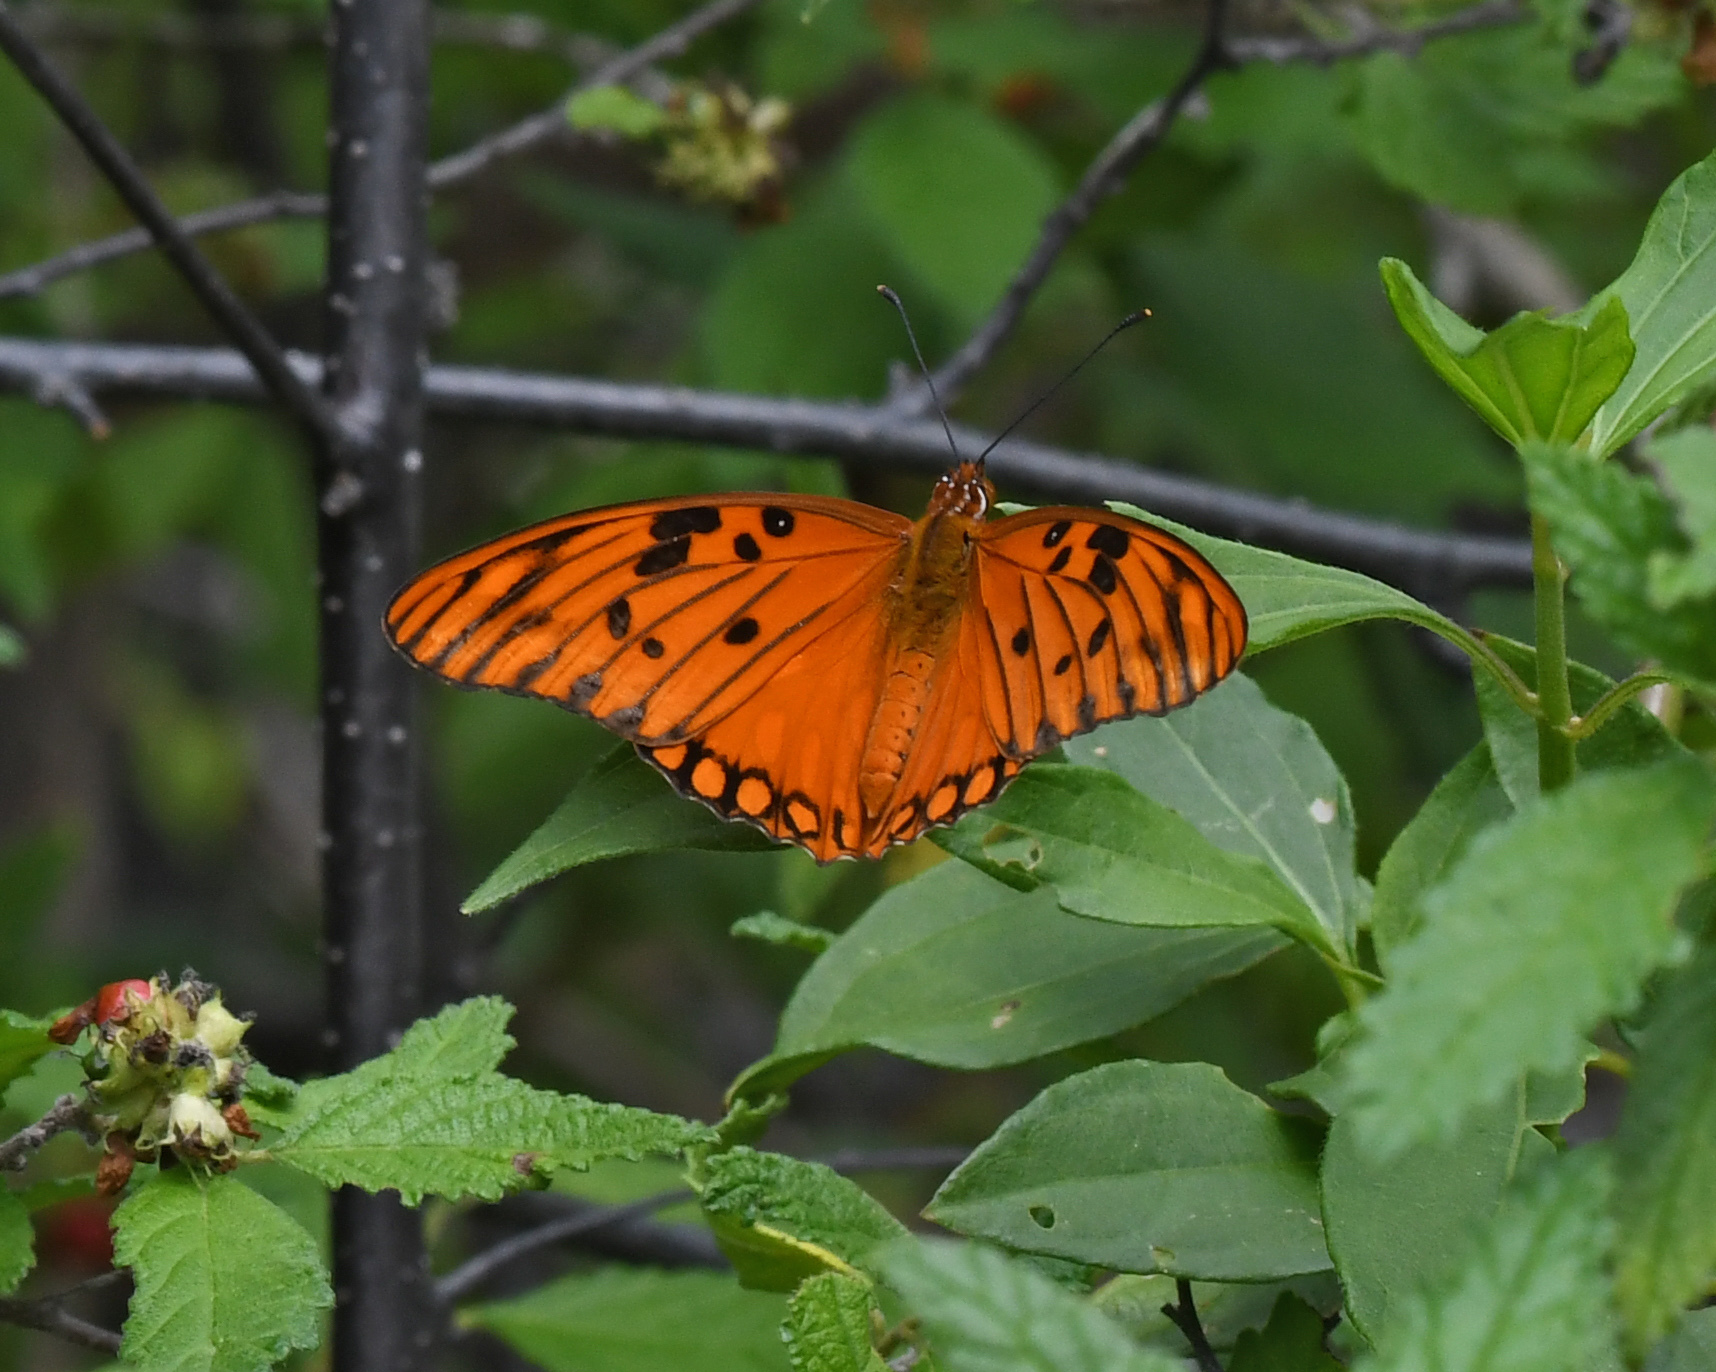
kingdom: Animalia
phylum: Arthropoda
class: Insecta
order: Lepidoptera
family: Nymphalidae
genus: Dione
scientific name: Dione vanillae
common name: Gulf fritillary
